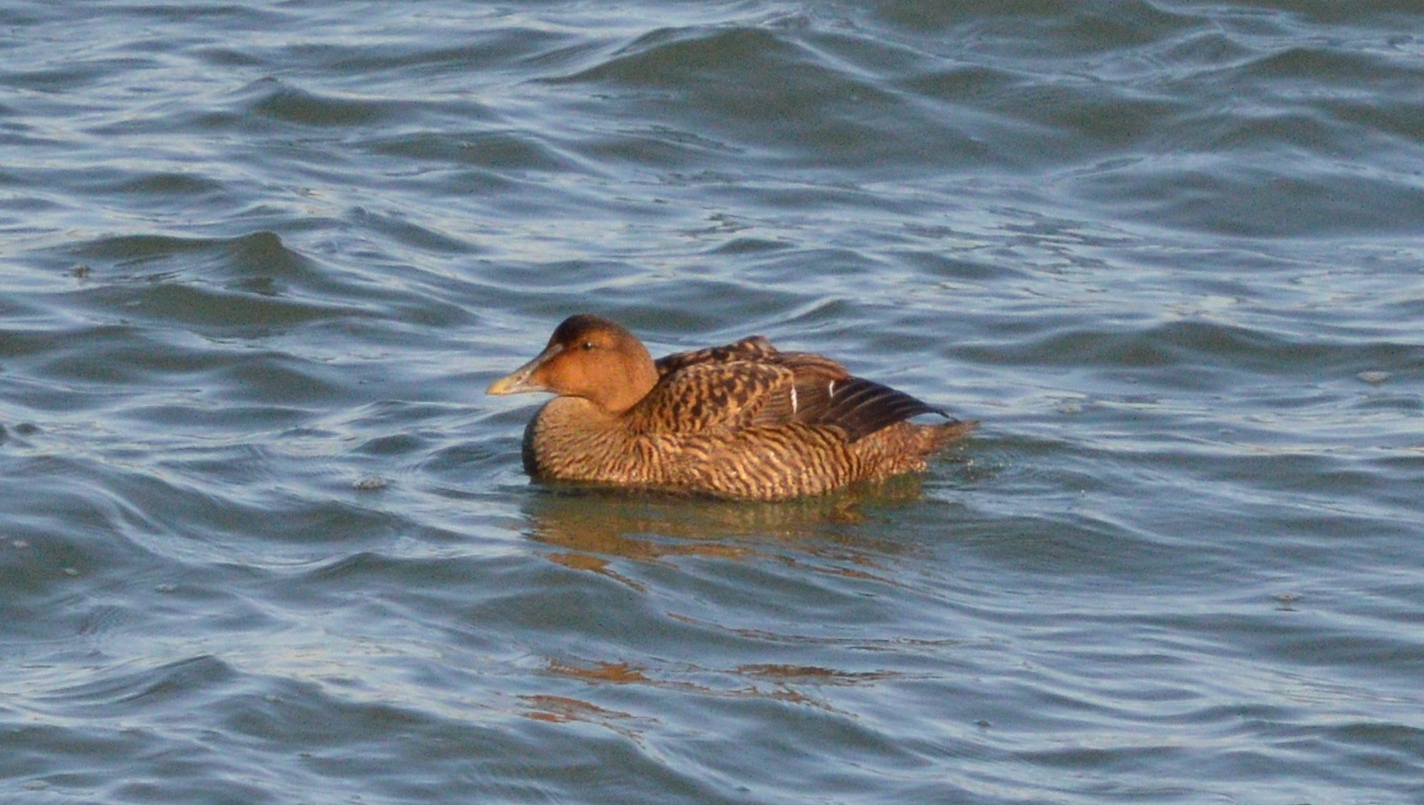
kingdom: Animalia
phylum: Chordata
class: Aves
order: Anseriformes
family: Anatidae
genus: Somateria
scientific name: Somateria mollissima
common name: Common eider
